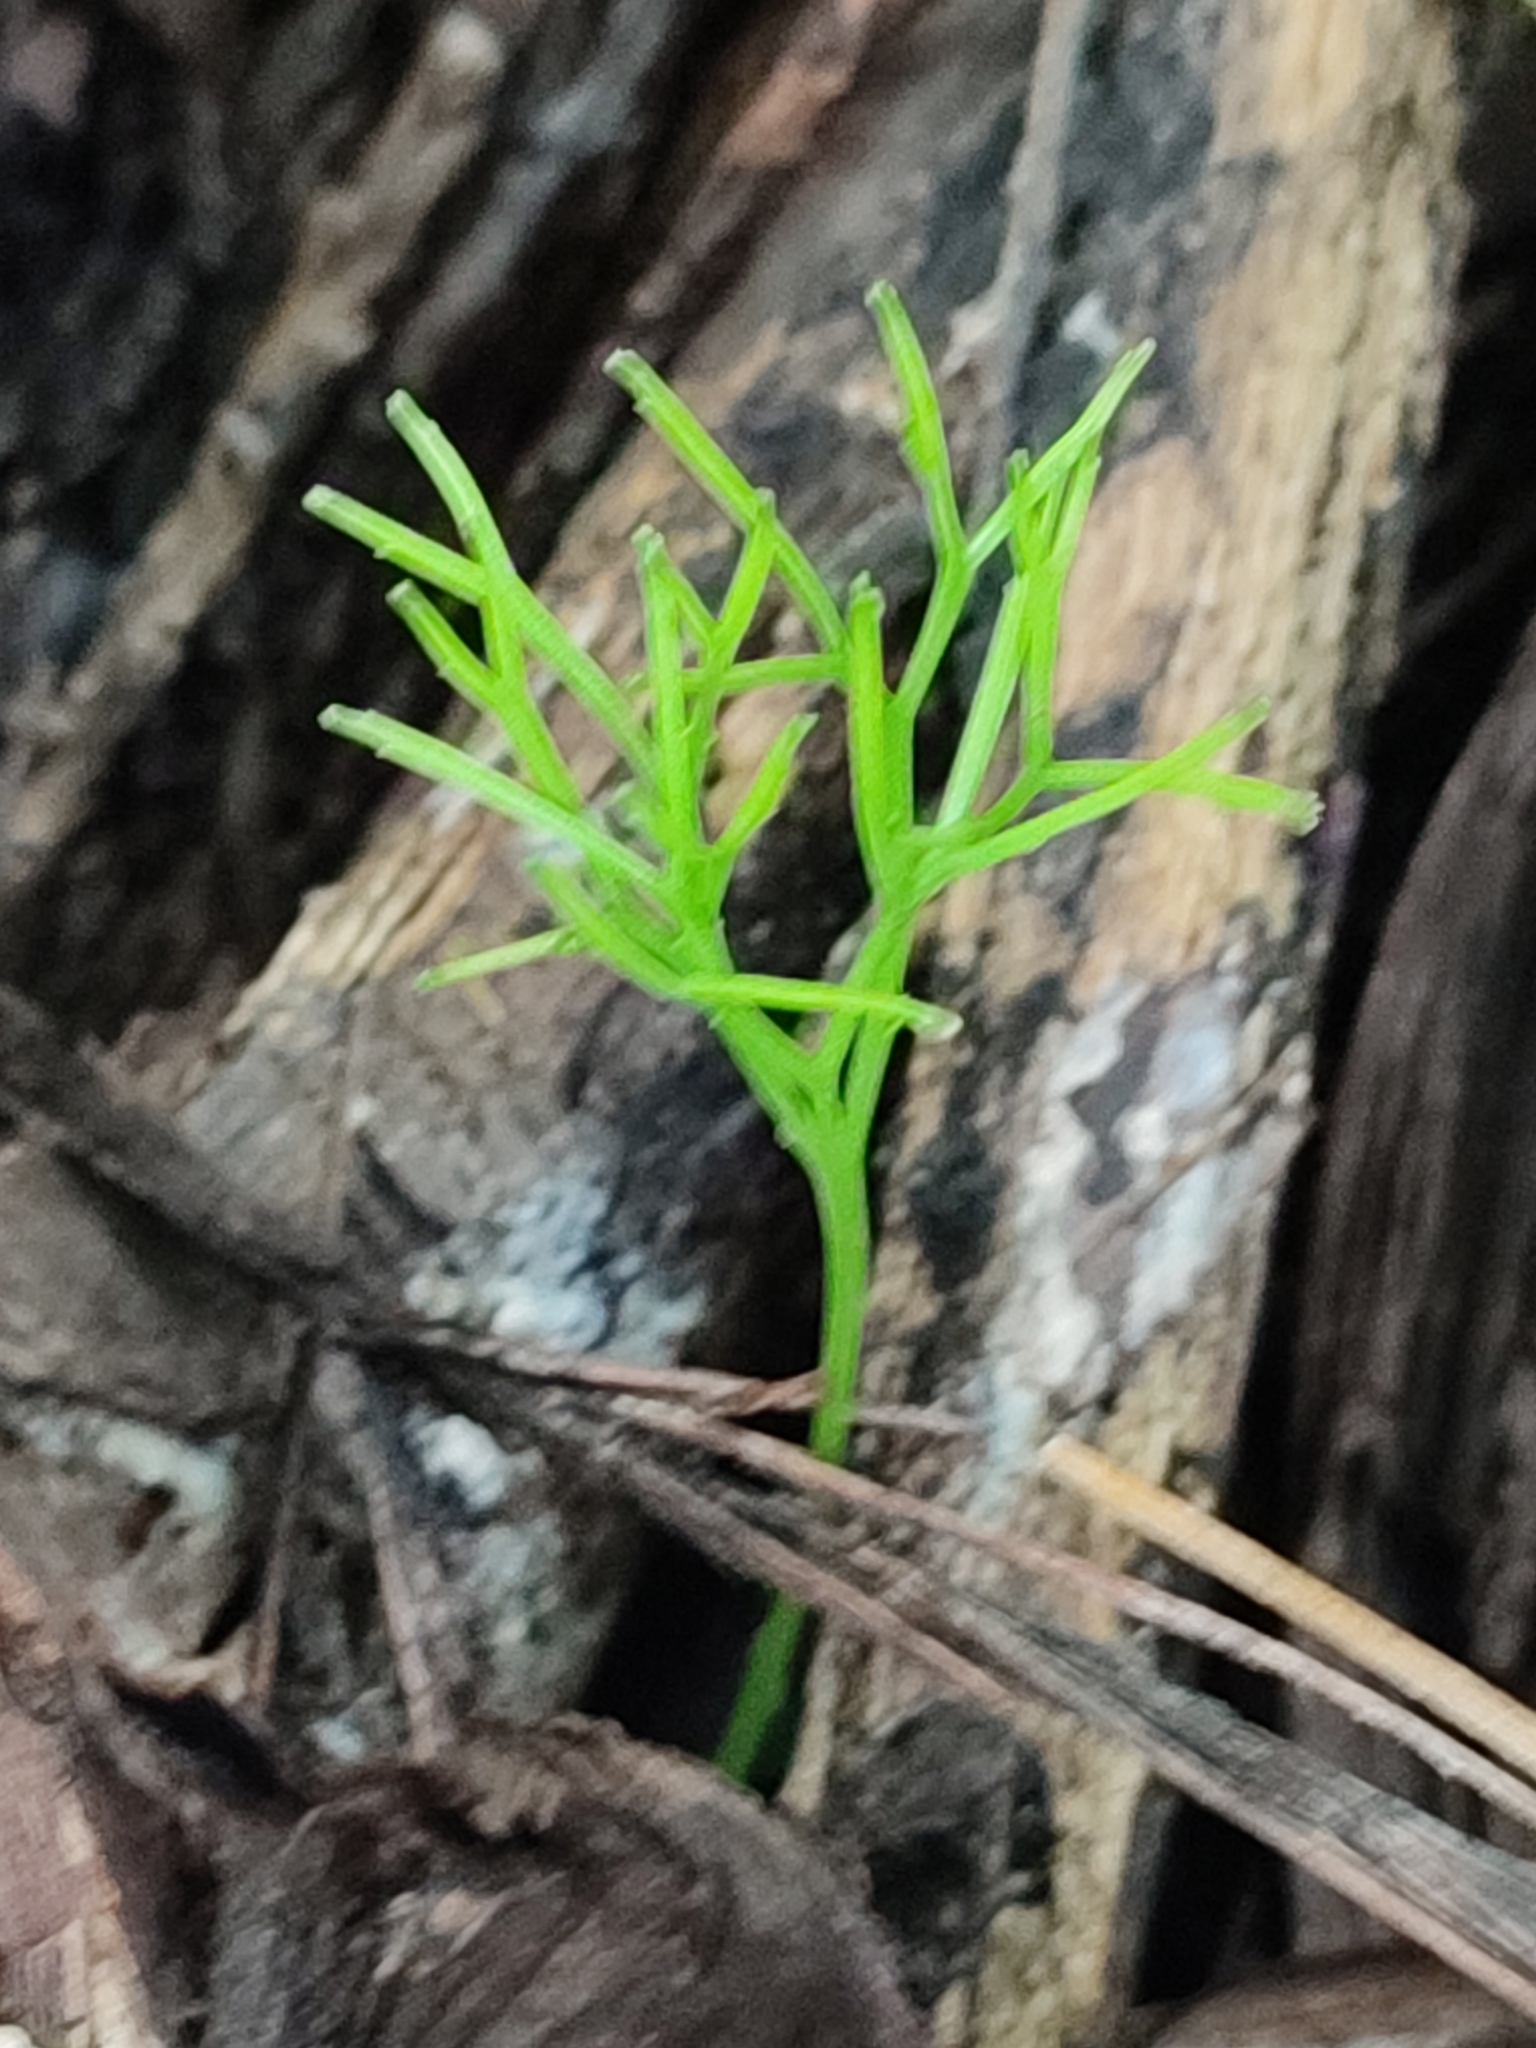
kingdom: Plantae
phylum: Tracheophyta
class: Polypodiopsida
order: Psilotales
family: Psilotaceae
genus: Psilotum
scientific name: Psilotum nudum
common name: Skeleton fork fern
